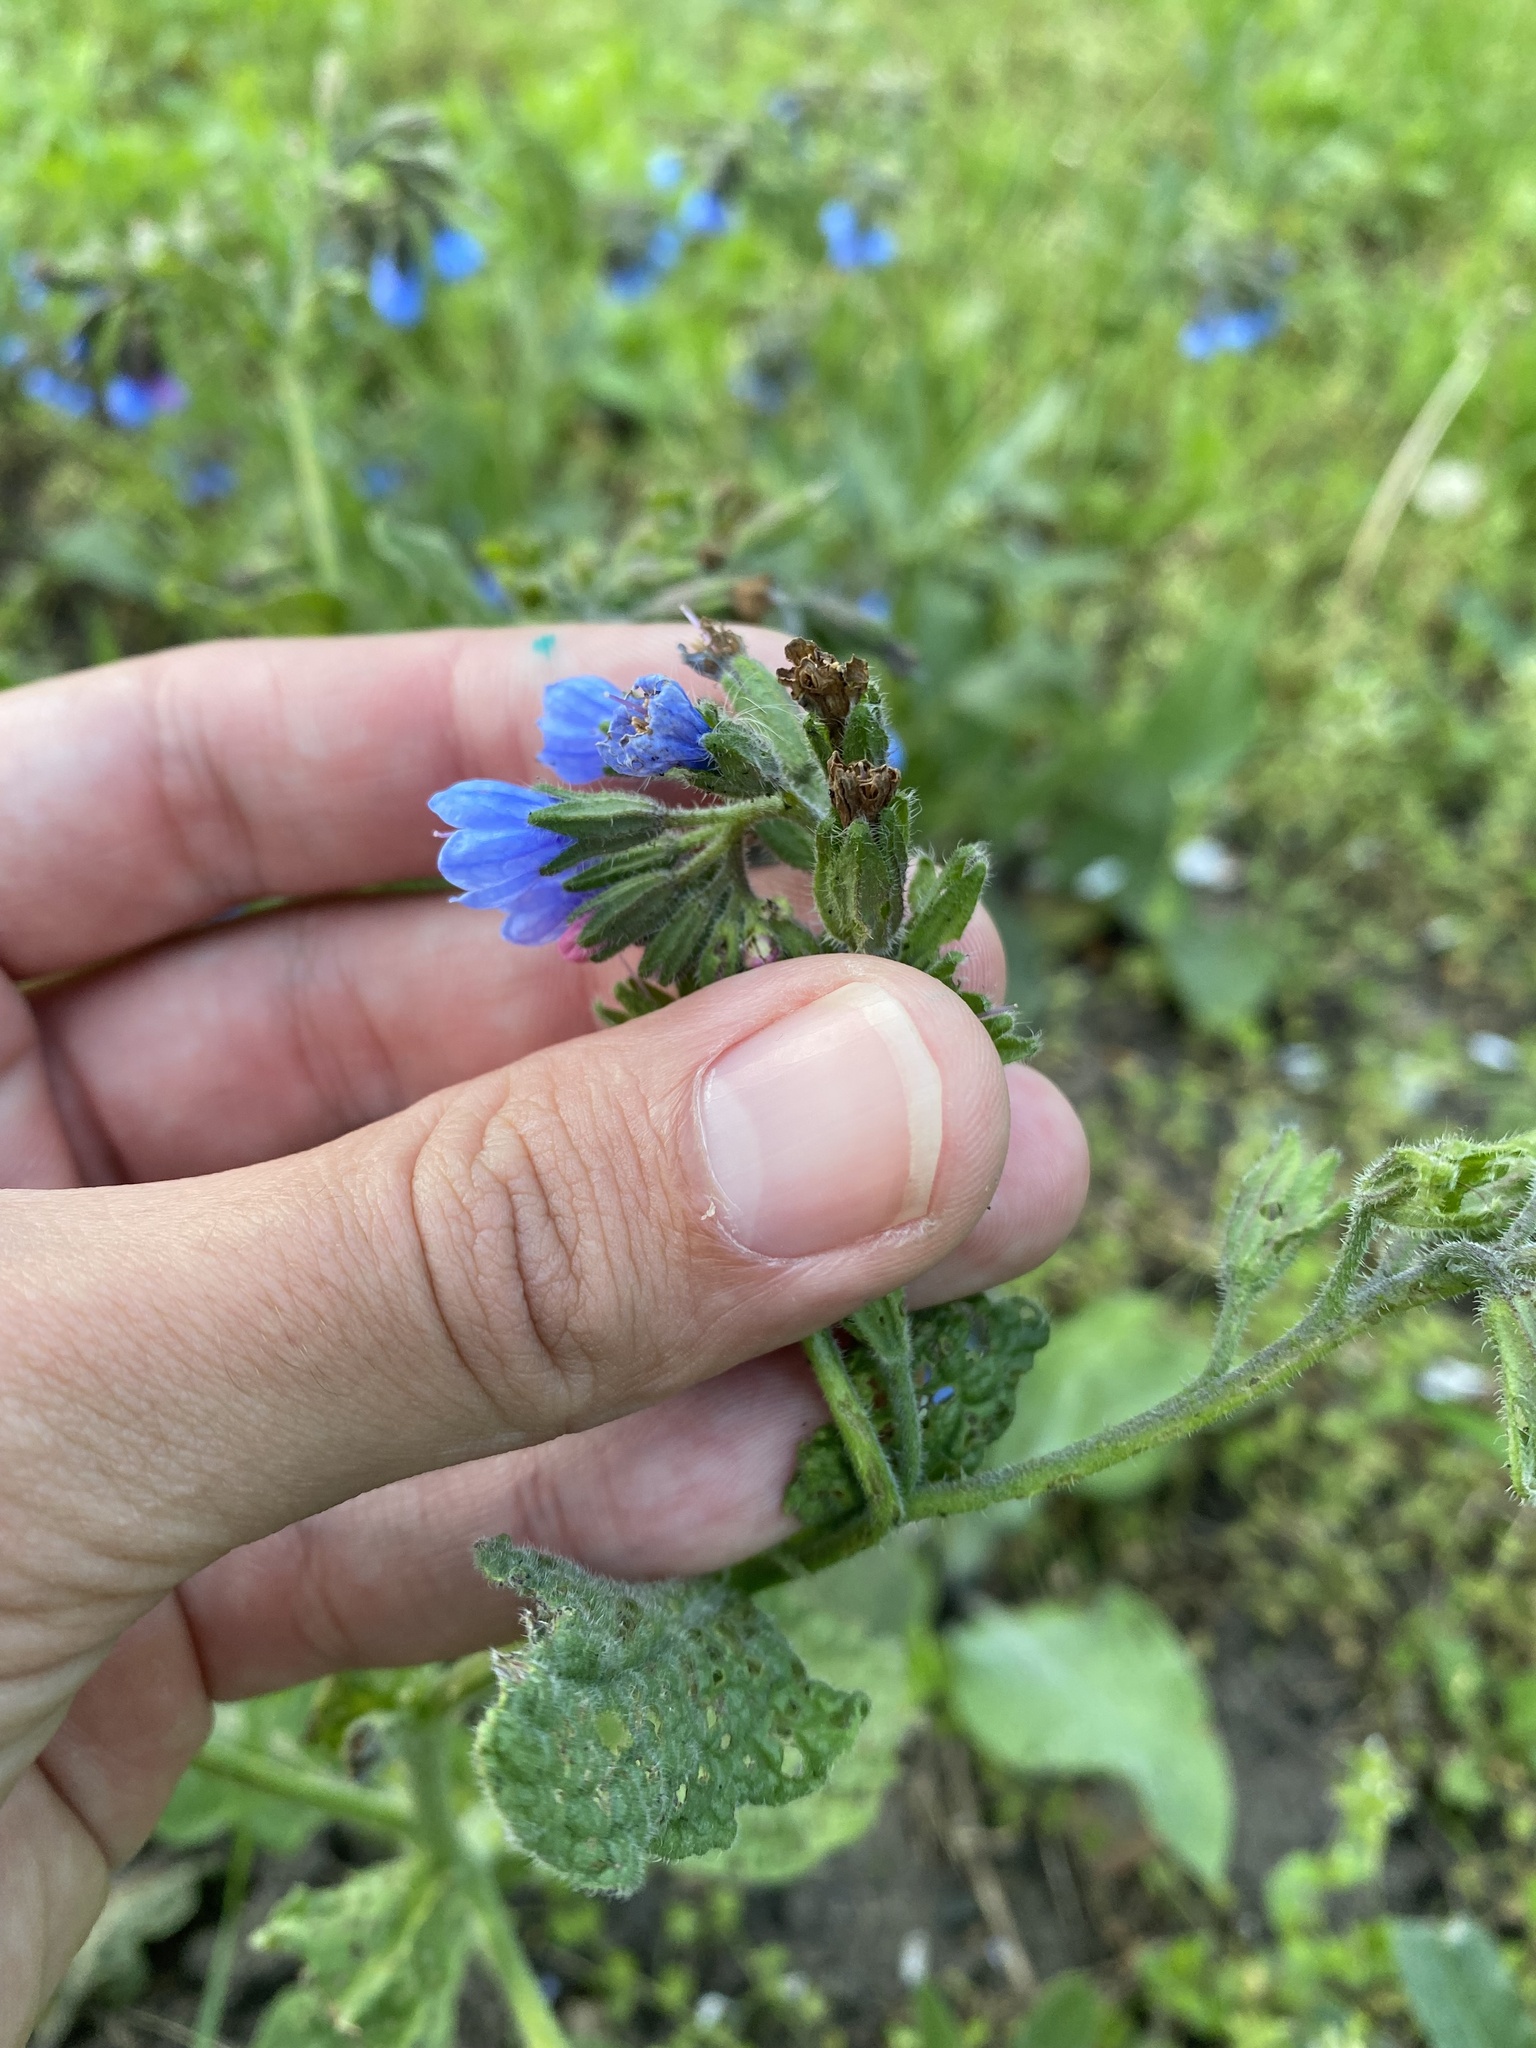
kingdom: Plantae
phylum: Tracheophyta
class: Magnoliopsida
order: Boraginales
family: Boraginaceae
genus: Symphytum
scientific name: Symphytum caucasicum
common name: Caucasian comfrey
